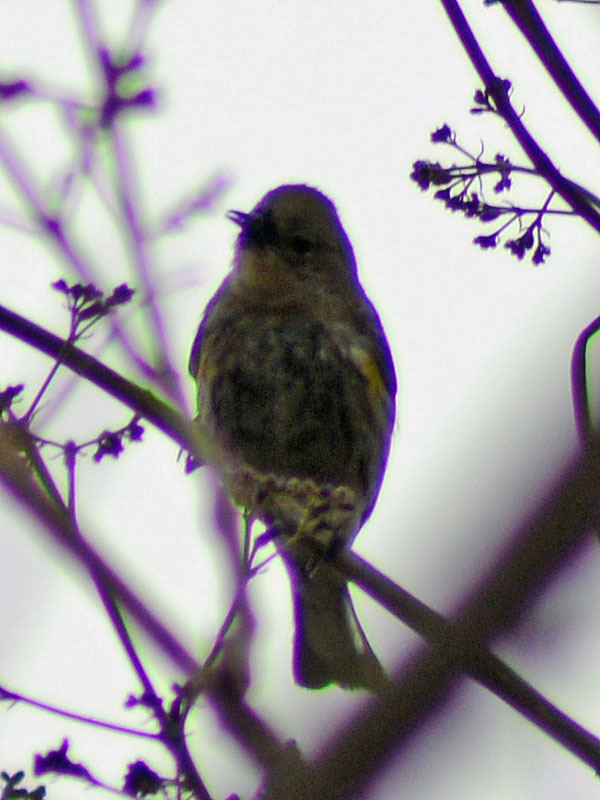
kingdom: Animalia
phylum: Chordata
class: Aves
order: Passeriformes
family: Parulidae
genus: Setophaga
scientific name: Setophaga coronata
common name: Myrtle warbler
